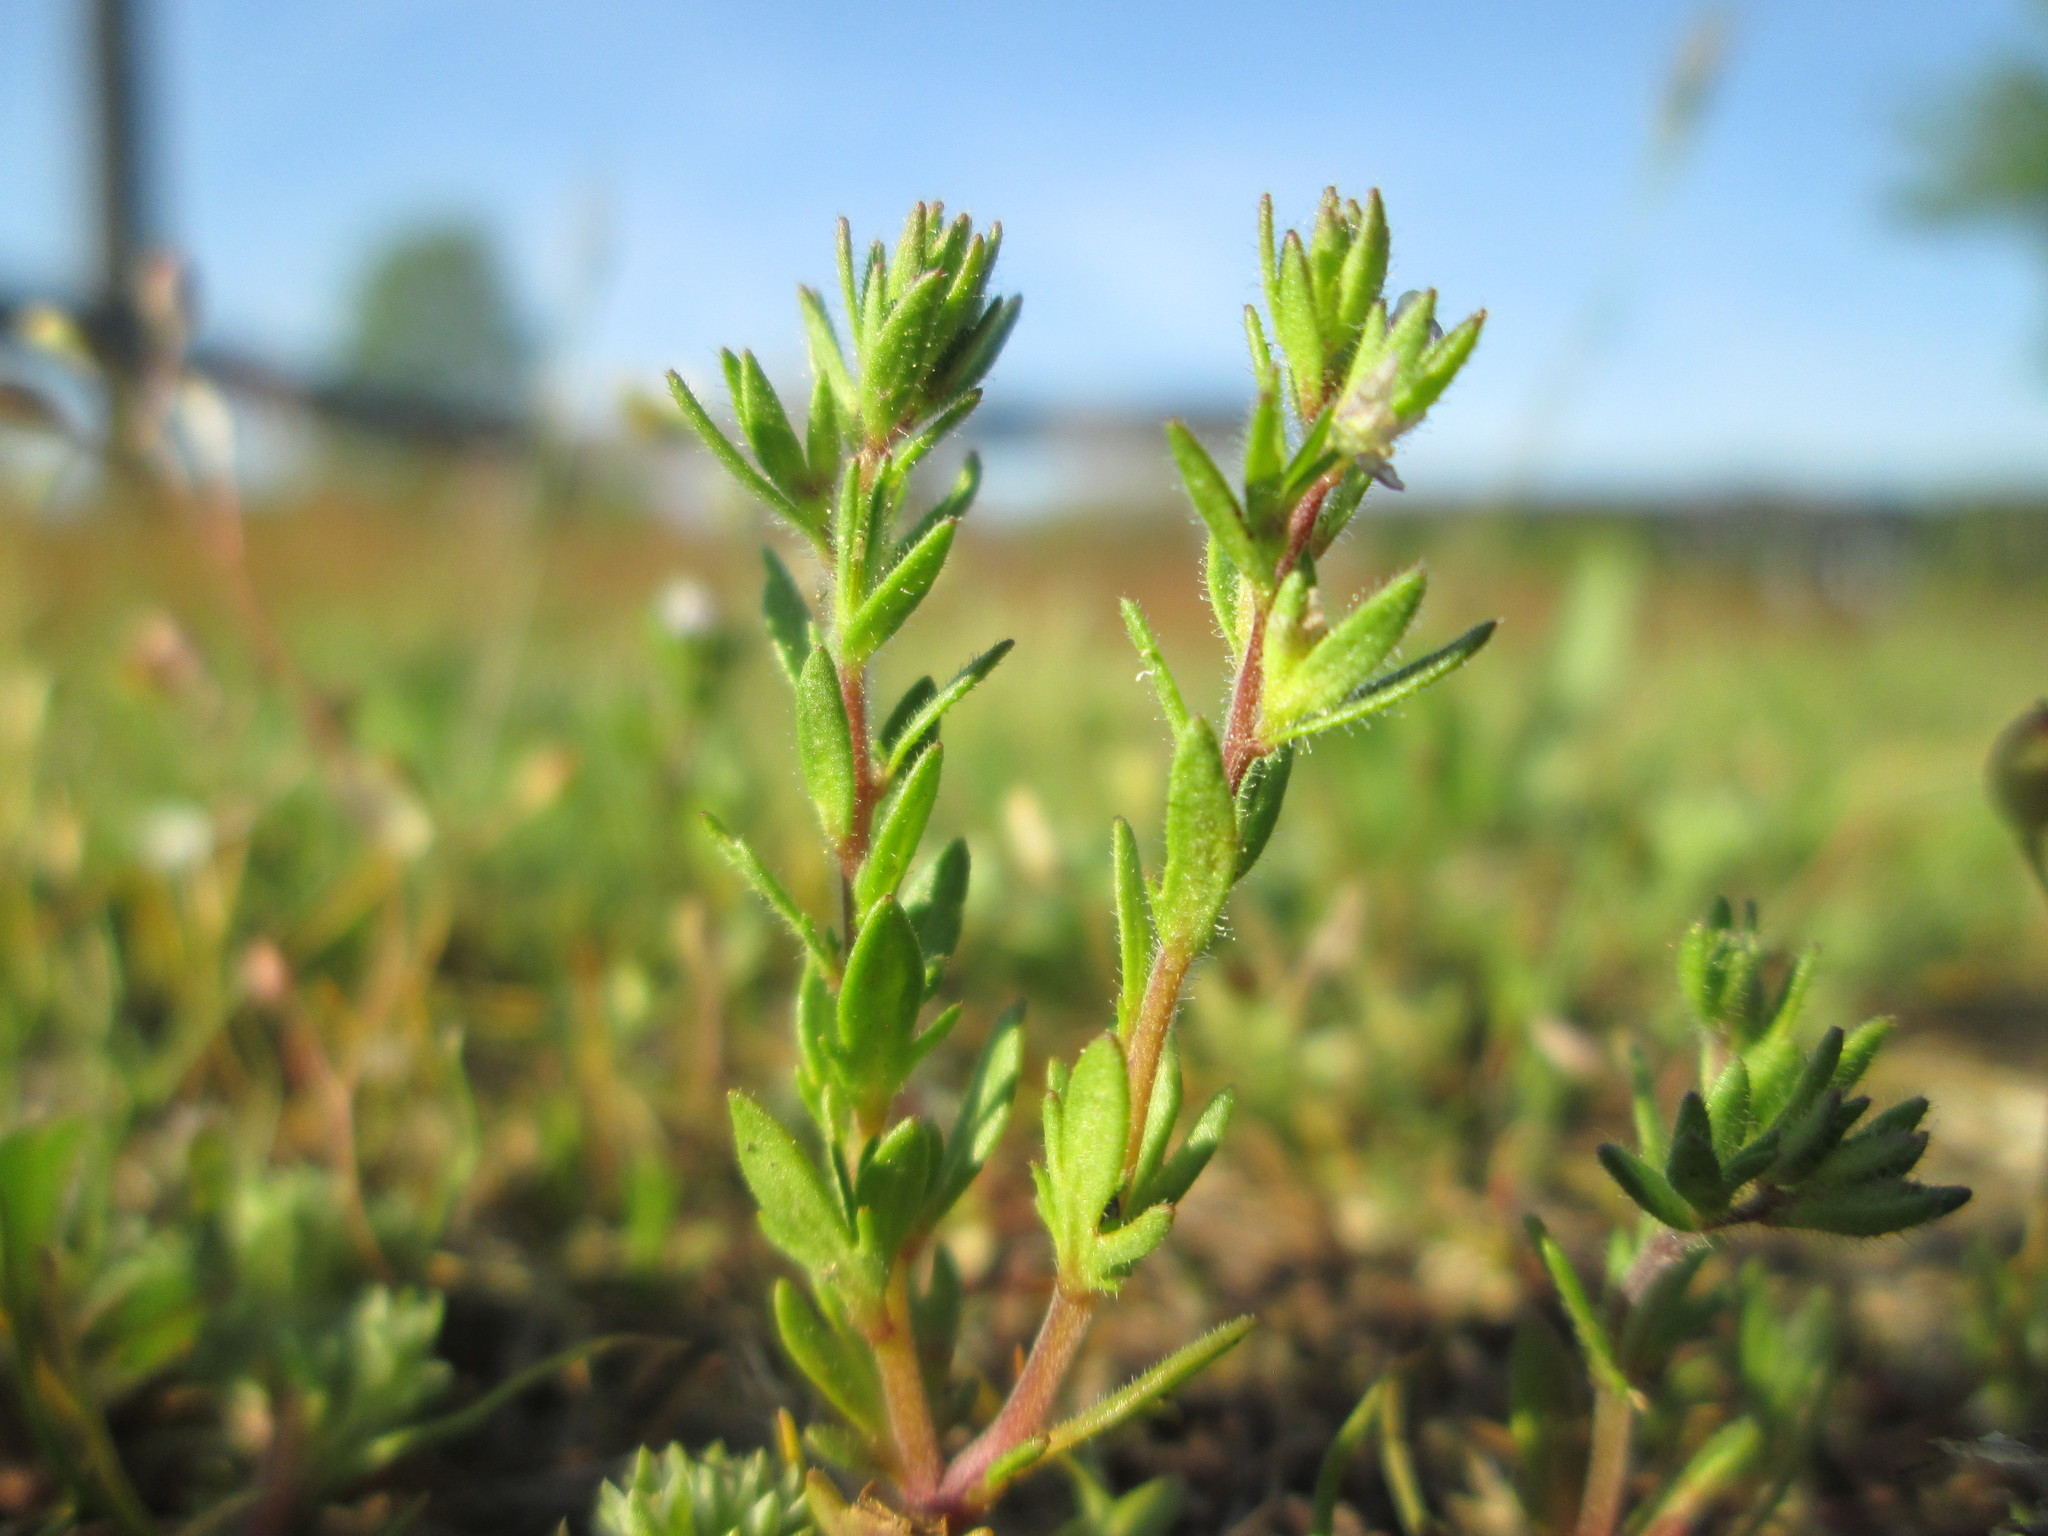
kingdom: Plantae
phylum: Tracheophyta
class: Magnoliopsida
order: Lamiales
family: Plantaginaceae
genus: Veronica
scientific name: Veronica verna
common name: Spring speedwell
